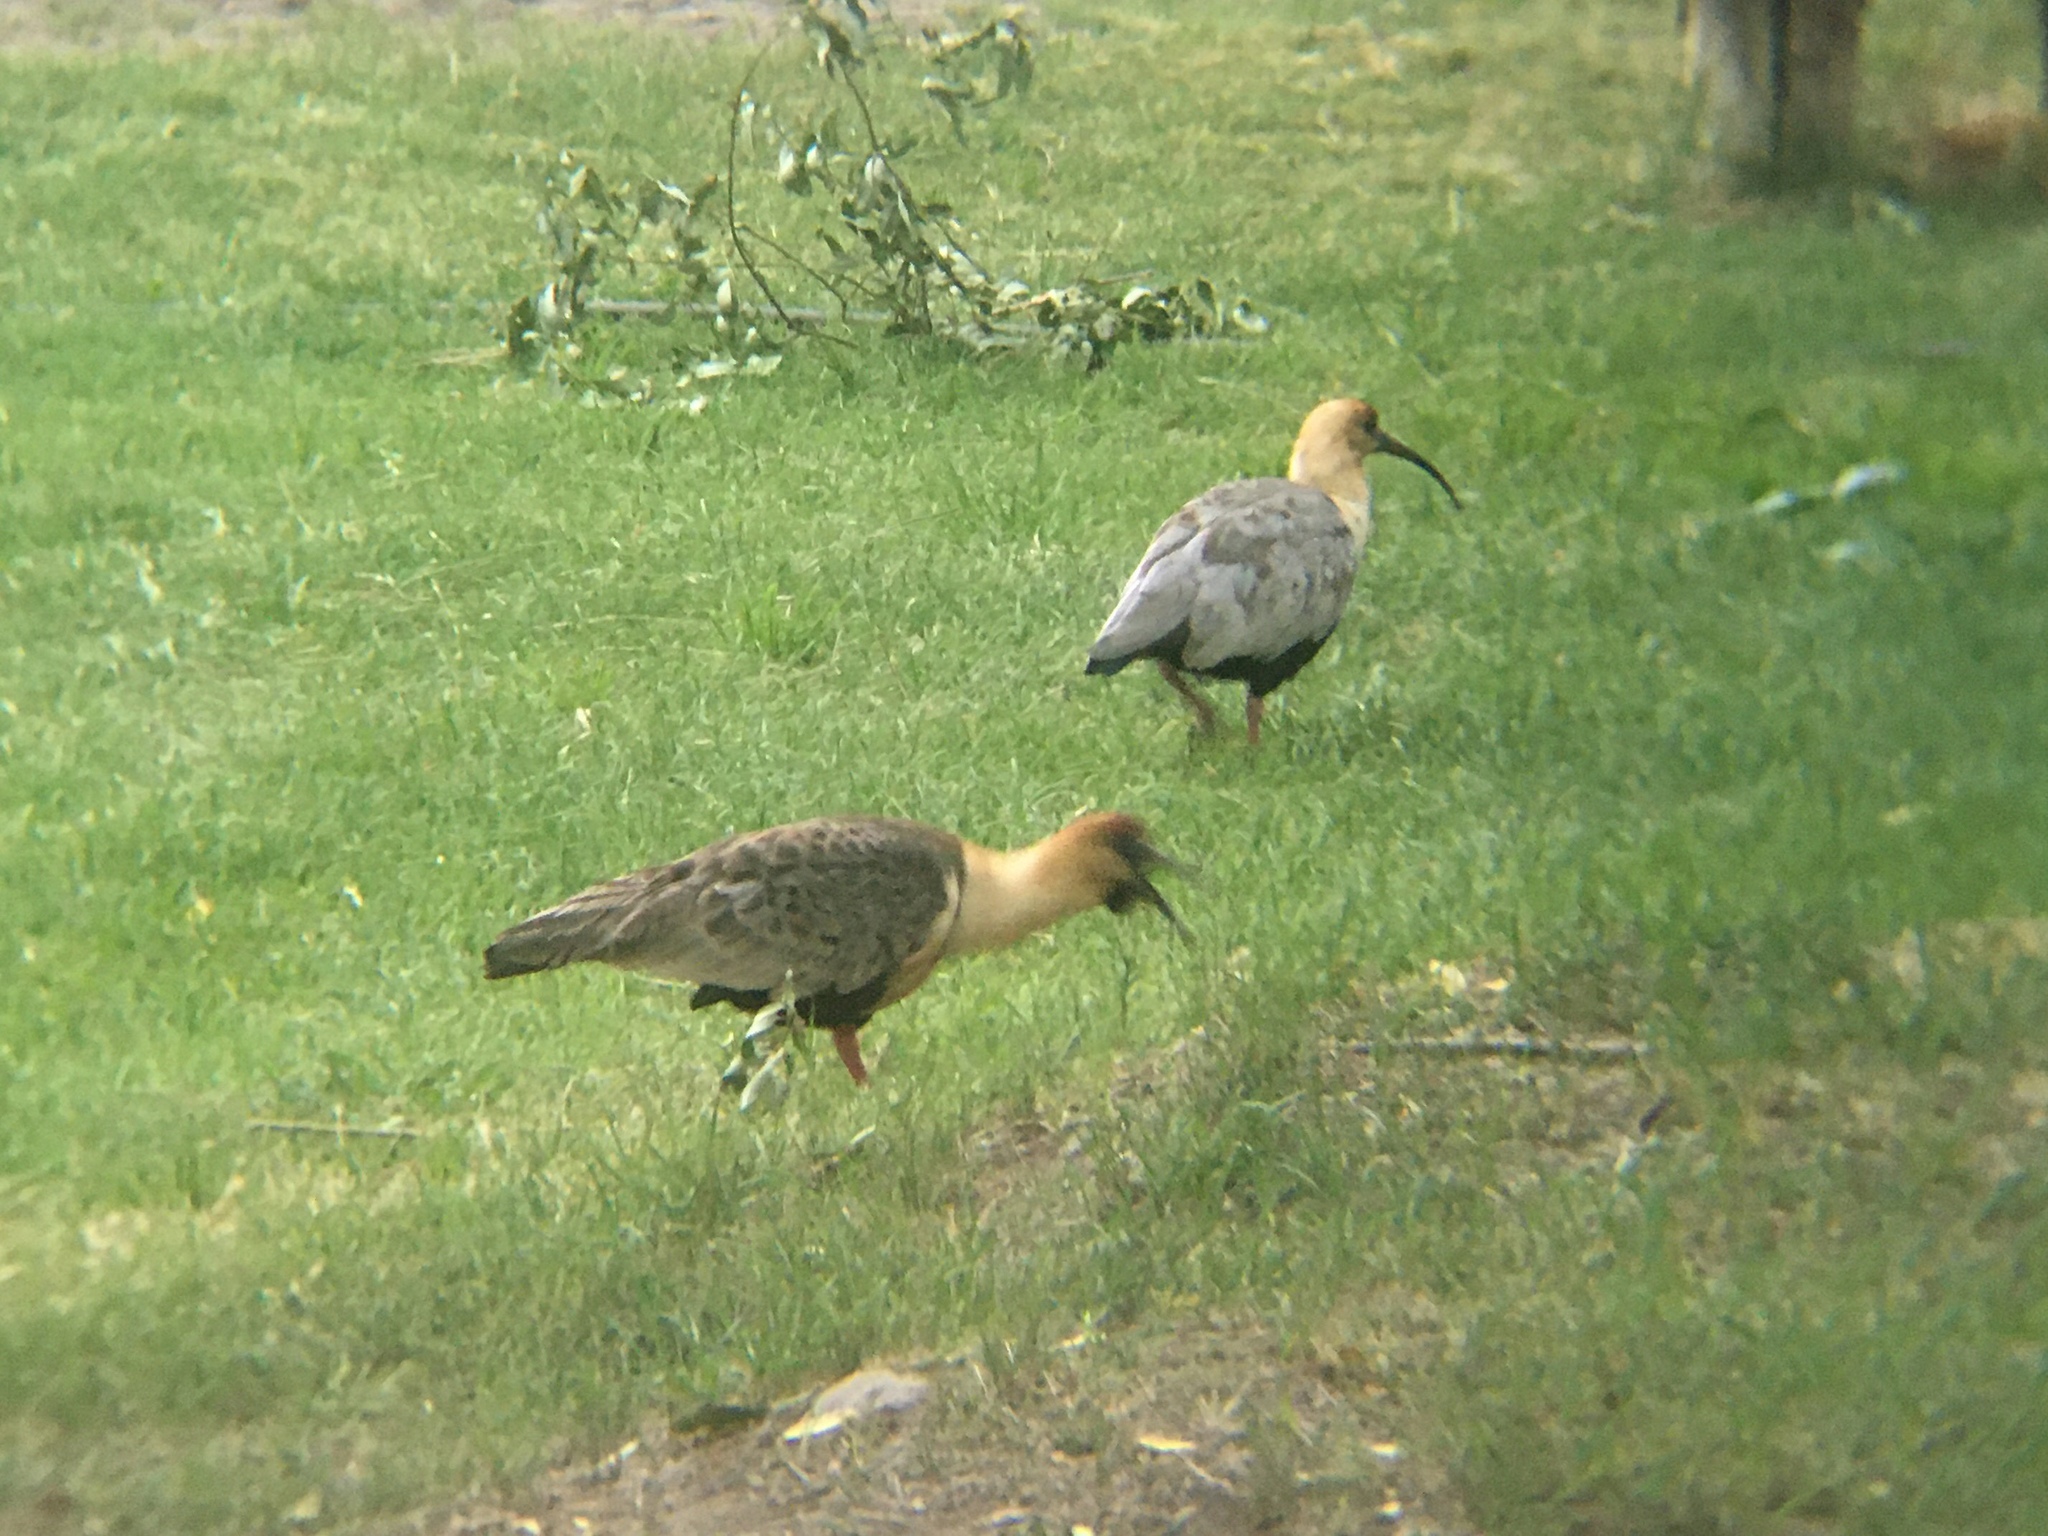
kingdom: Animalia
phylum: Chordata
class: Aves
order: Pelecaniformes
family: Threskiornithidae
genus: Theristicus
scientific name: Theristicus melanopis
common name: Black-faced ibis
